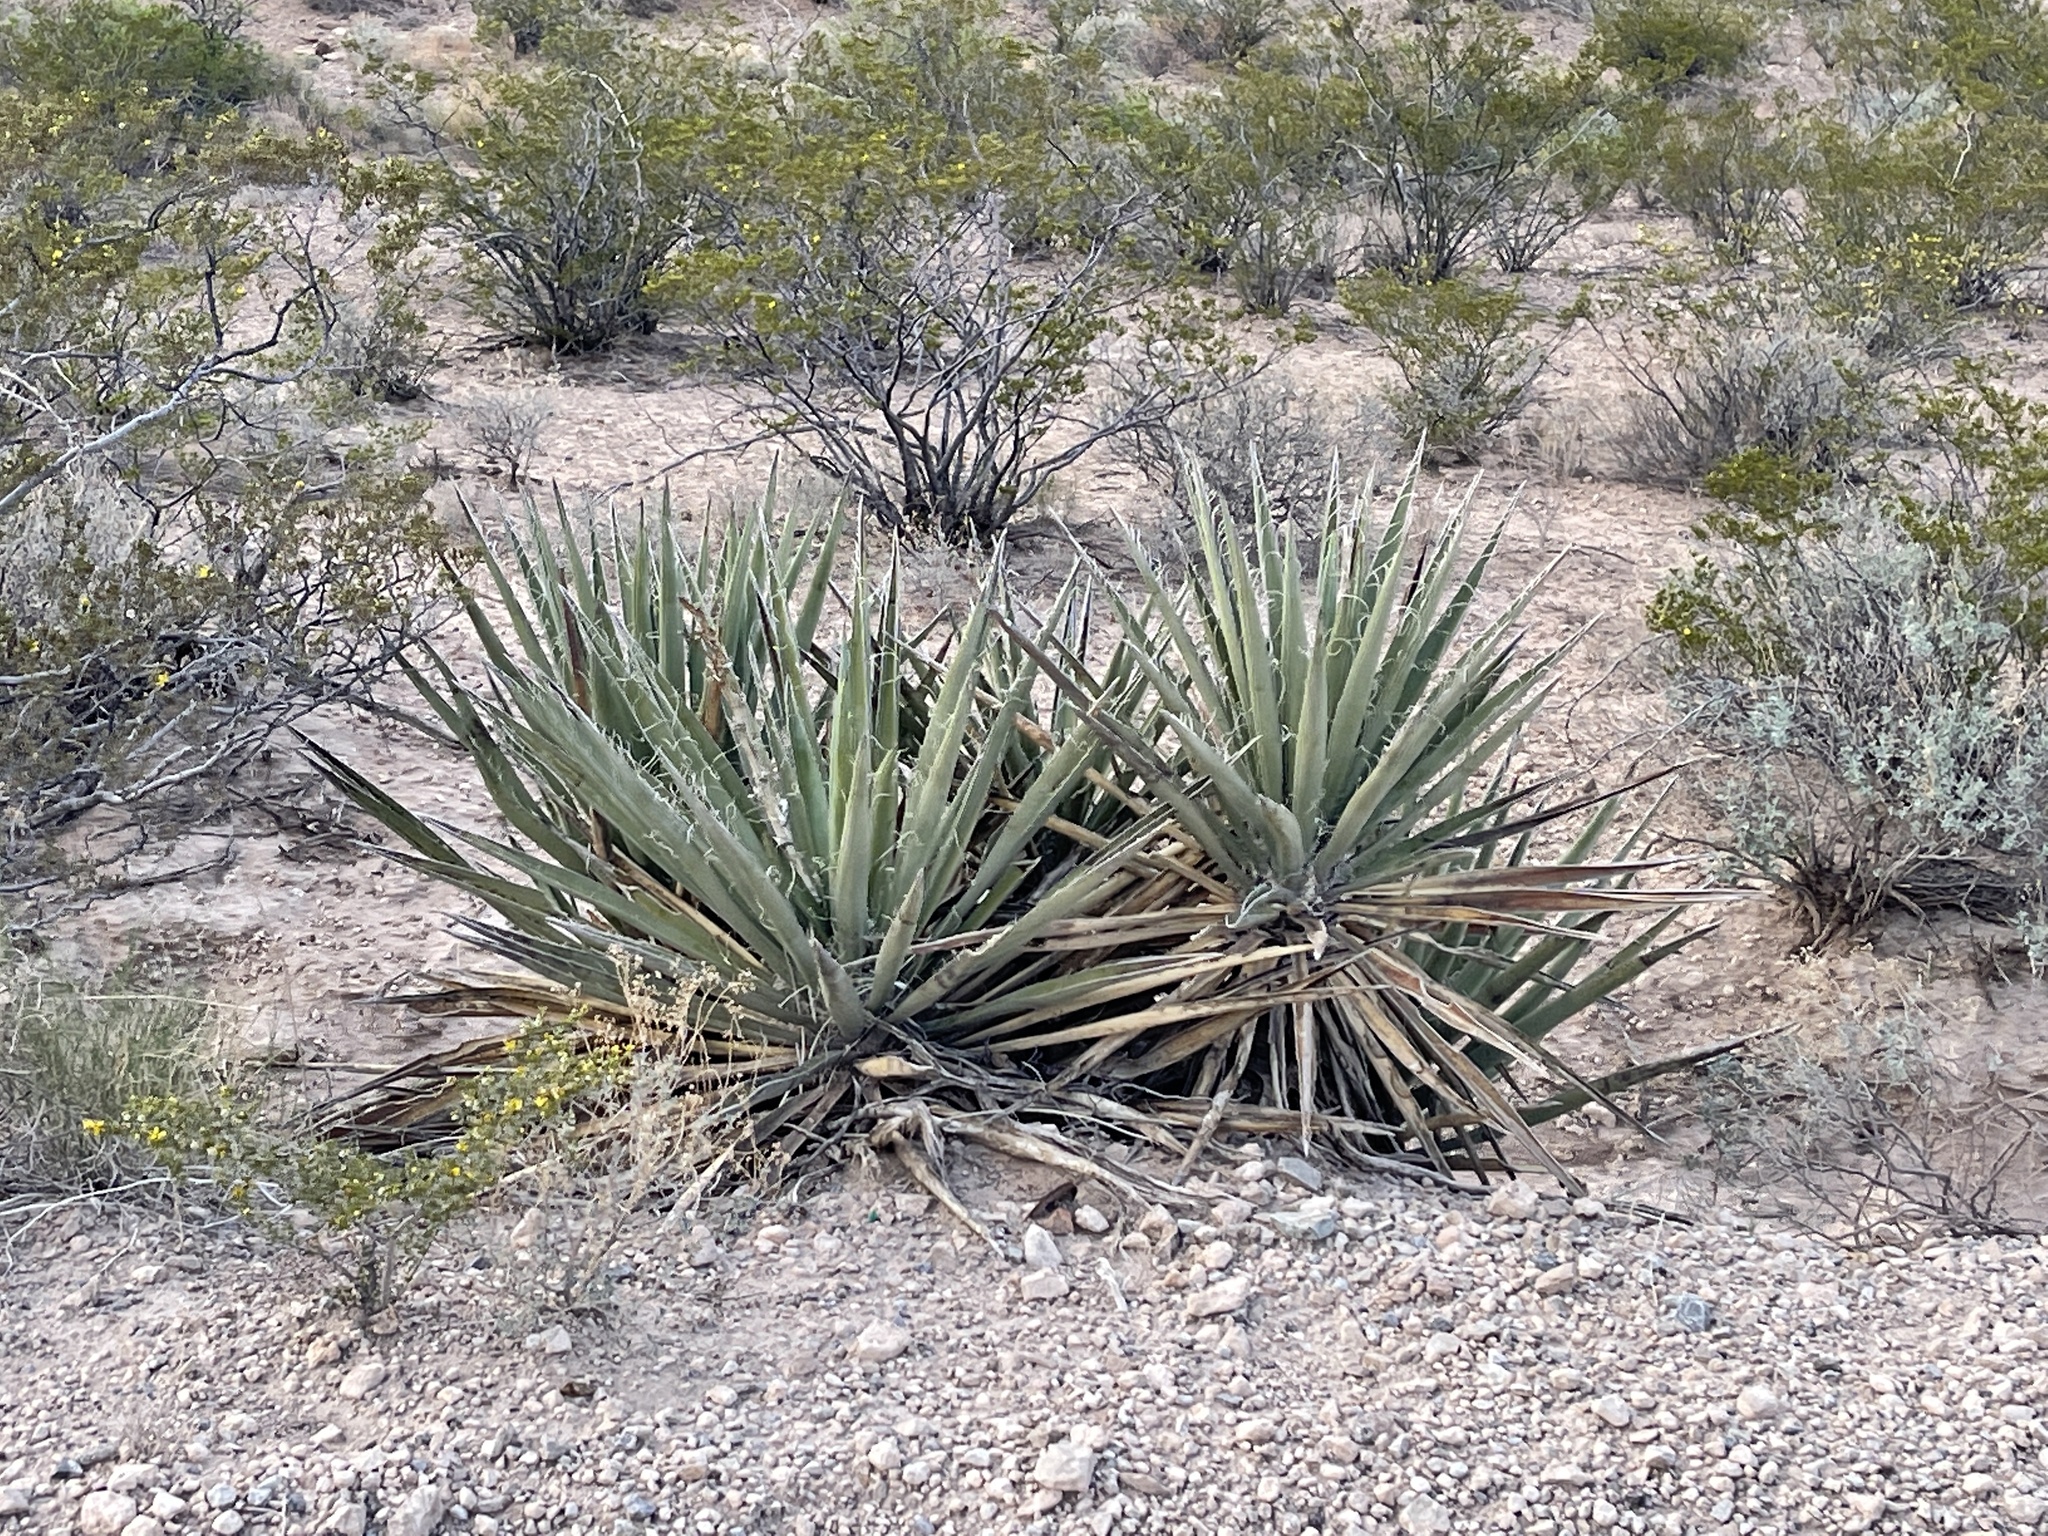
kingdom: Plantae
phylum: Tracheophyta
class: Liliopsida
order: Asparagales
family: Asparagaceae
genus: Yucca
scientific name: Yucca baccata
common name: Banana yucca
